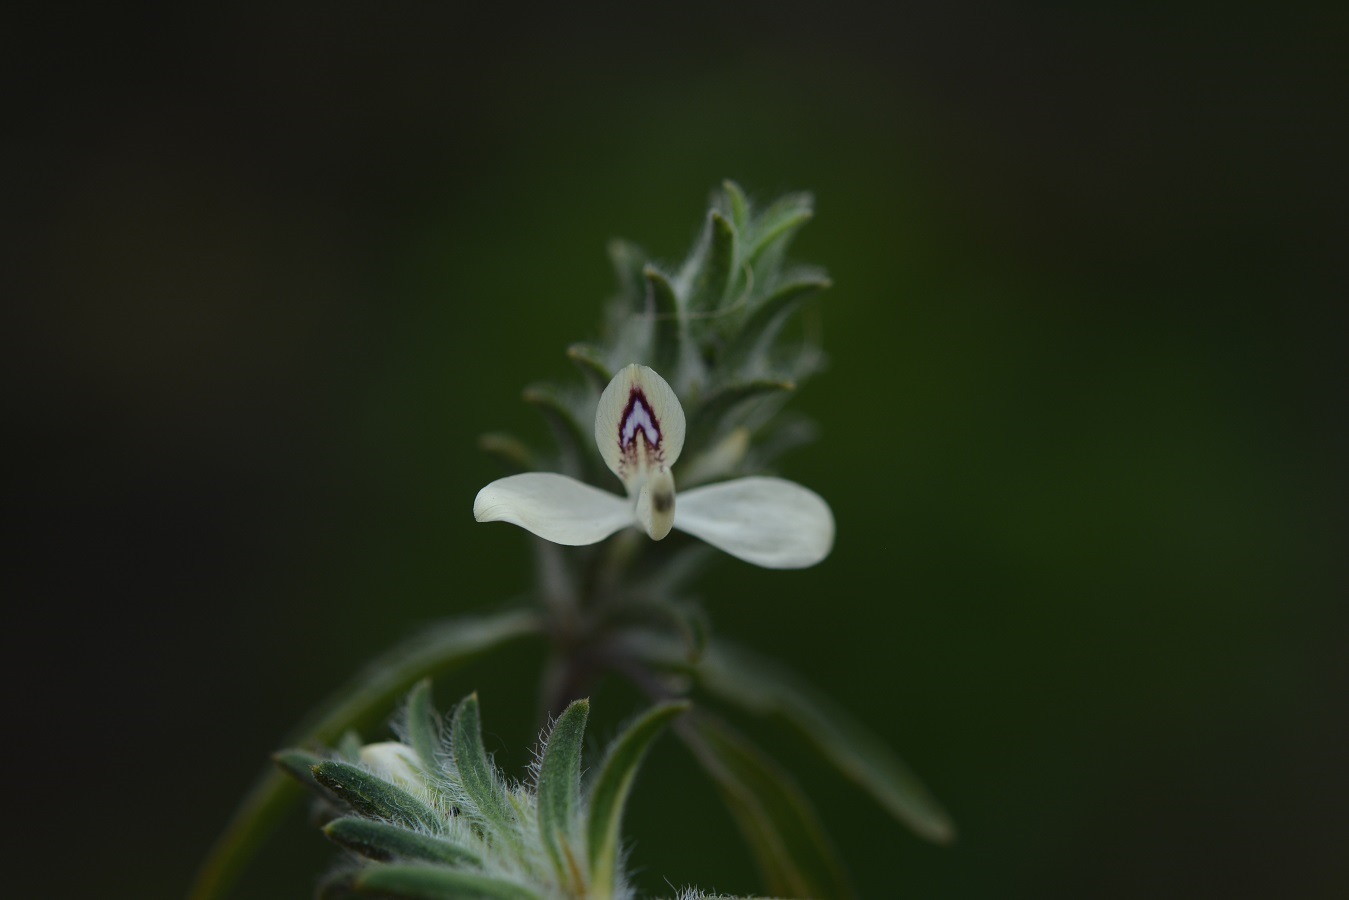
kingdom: Plantae
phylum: Tracheophyta
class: Magnoliopsida
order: Lamiales
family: Acanthaceae
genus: Tetramerium
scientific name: Tetramerium nervosum
